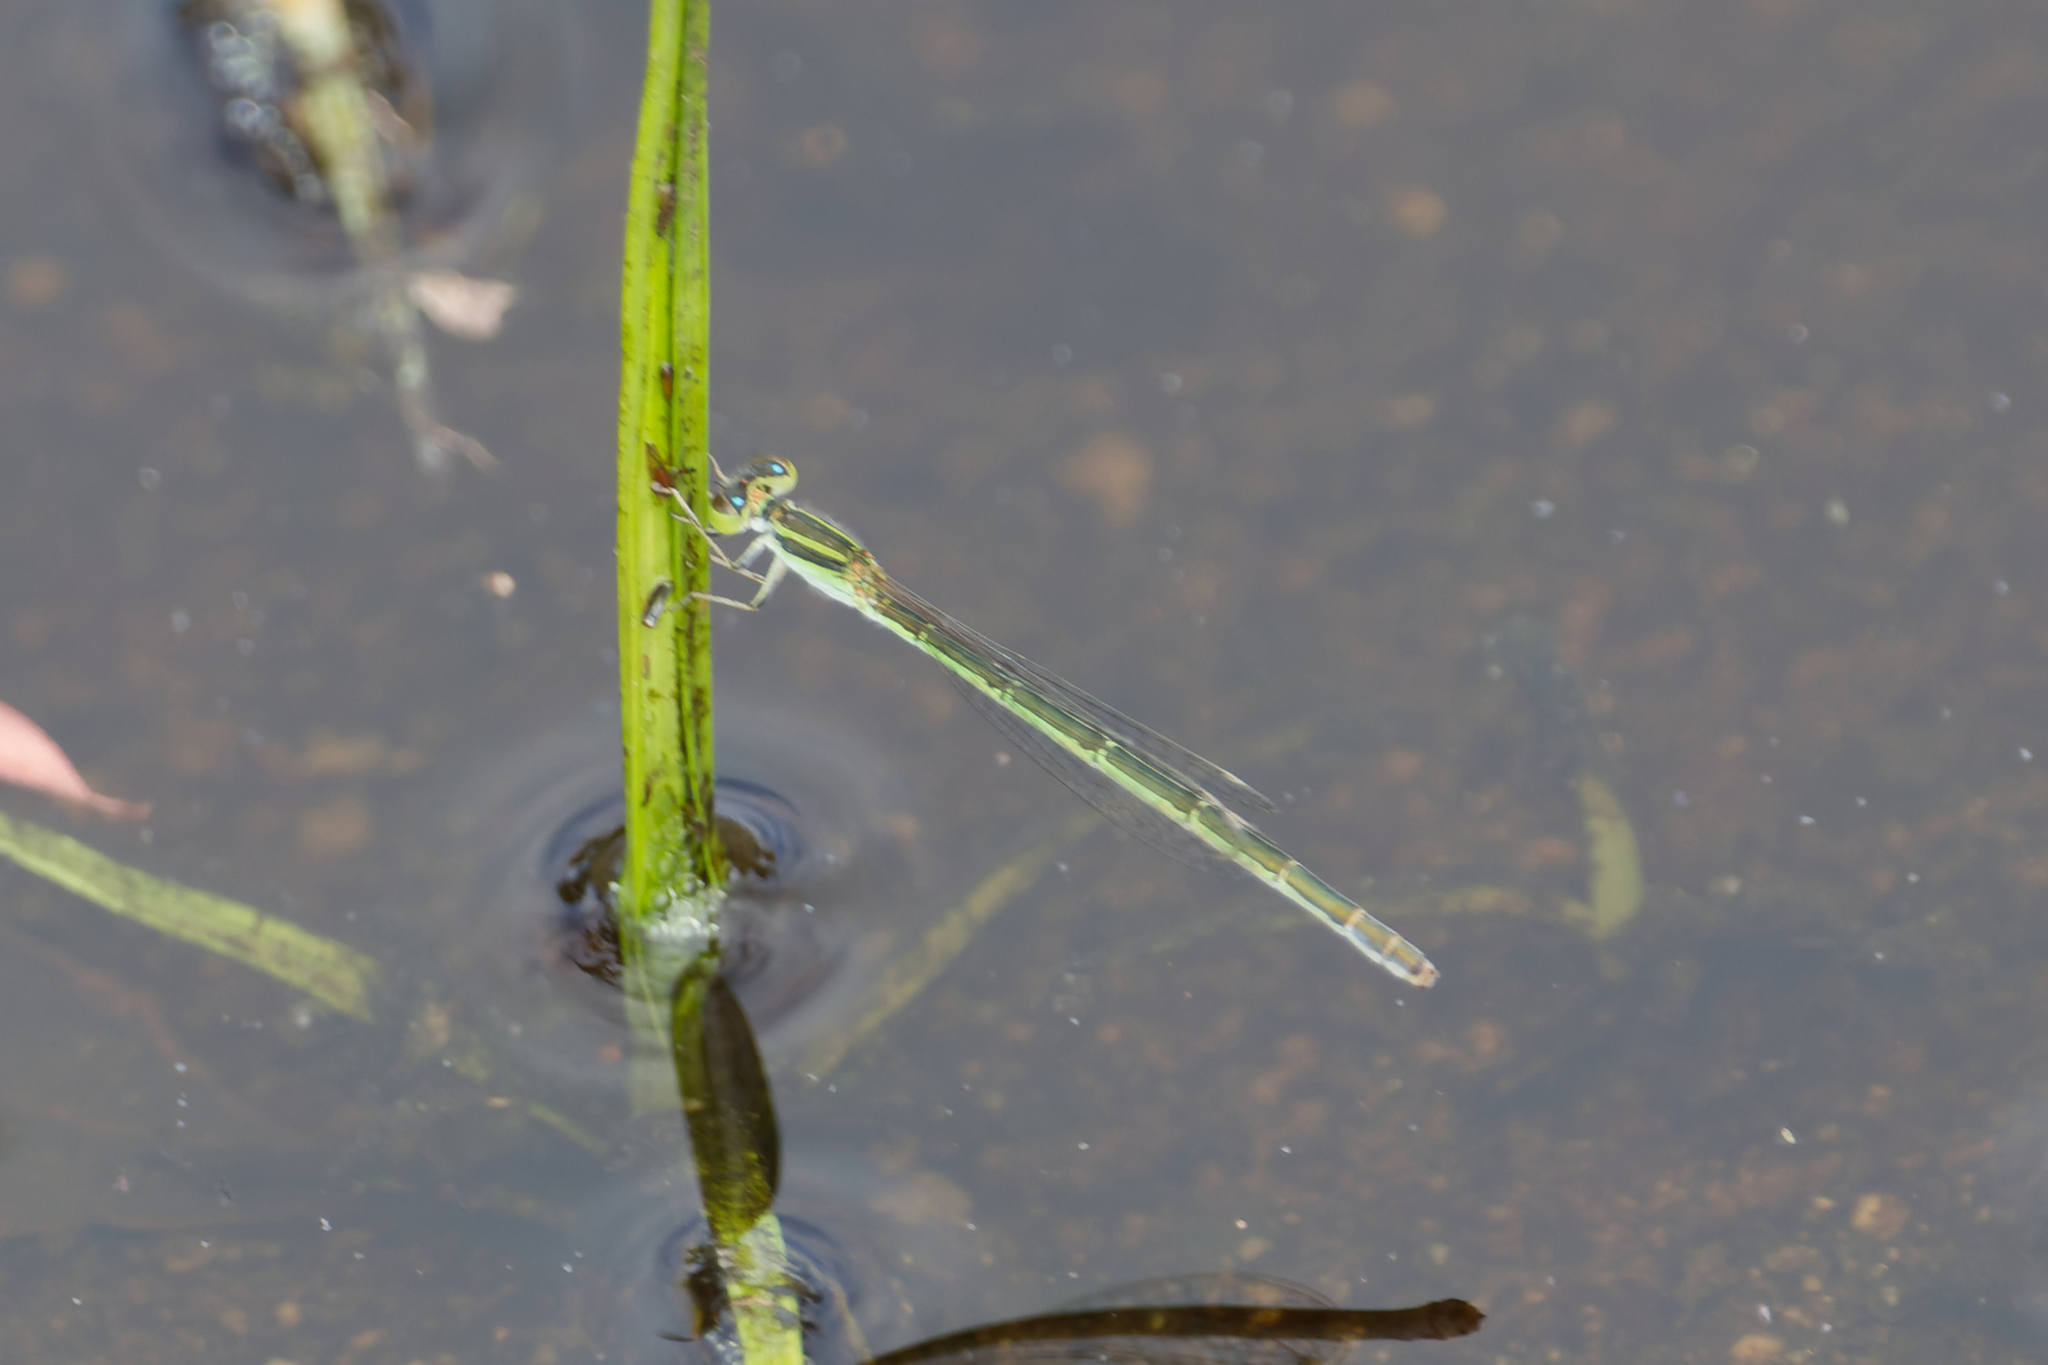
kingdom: Animalia
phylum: Arthropoda
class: Insecta
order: Odonata
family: Coenagrionidae
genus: Ischnura
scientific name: Ischnura aurora
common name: Gossamer damselfly
